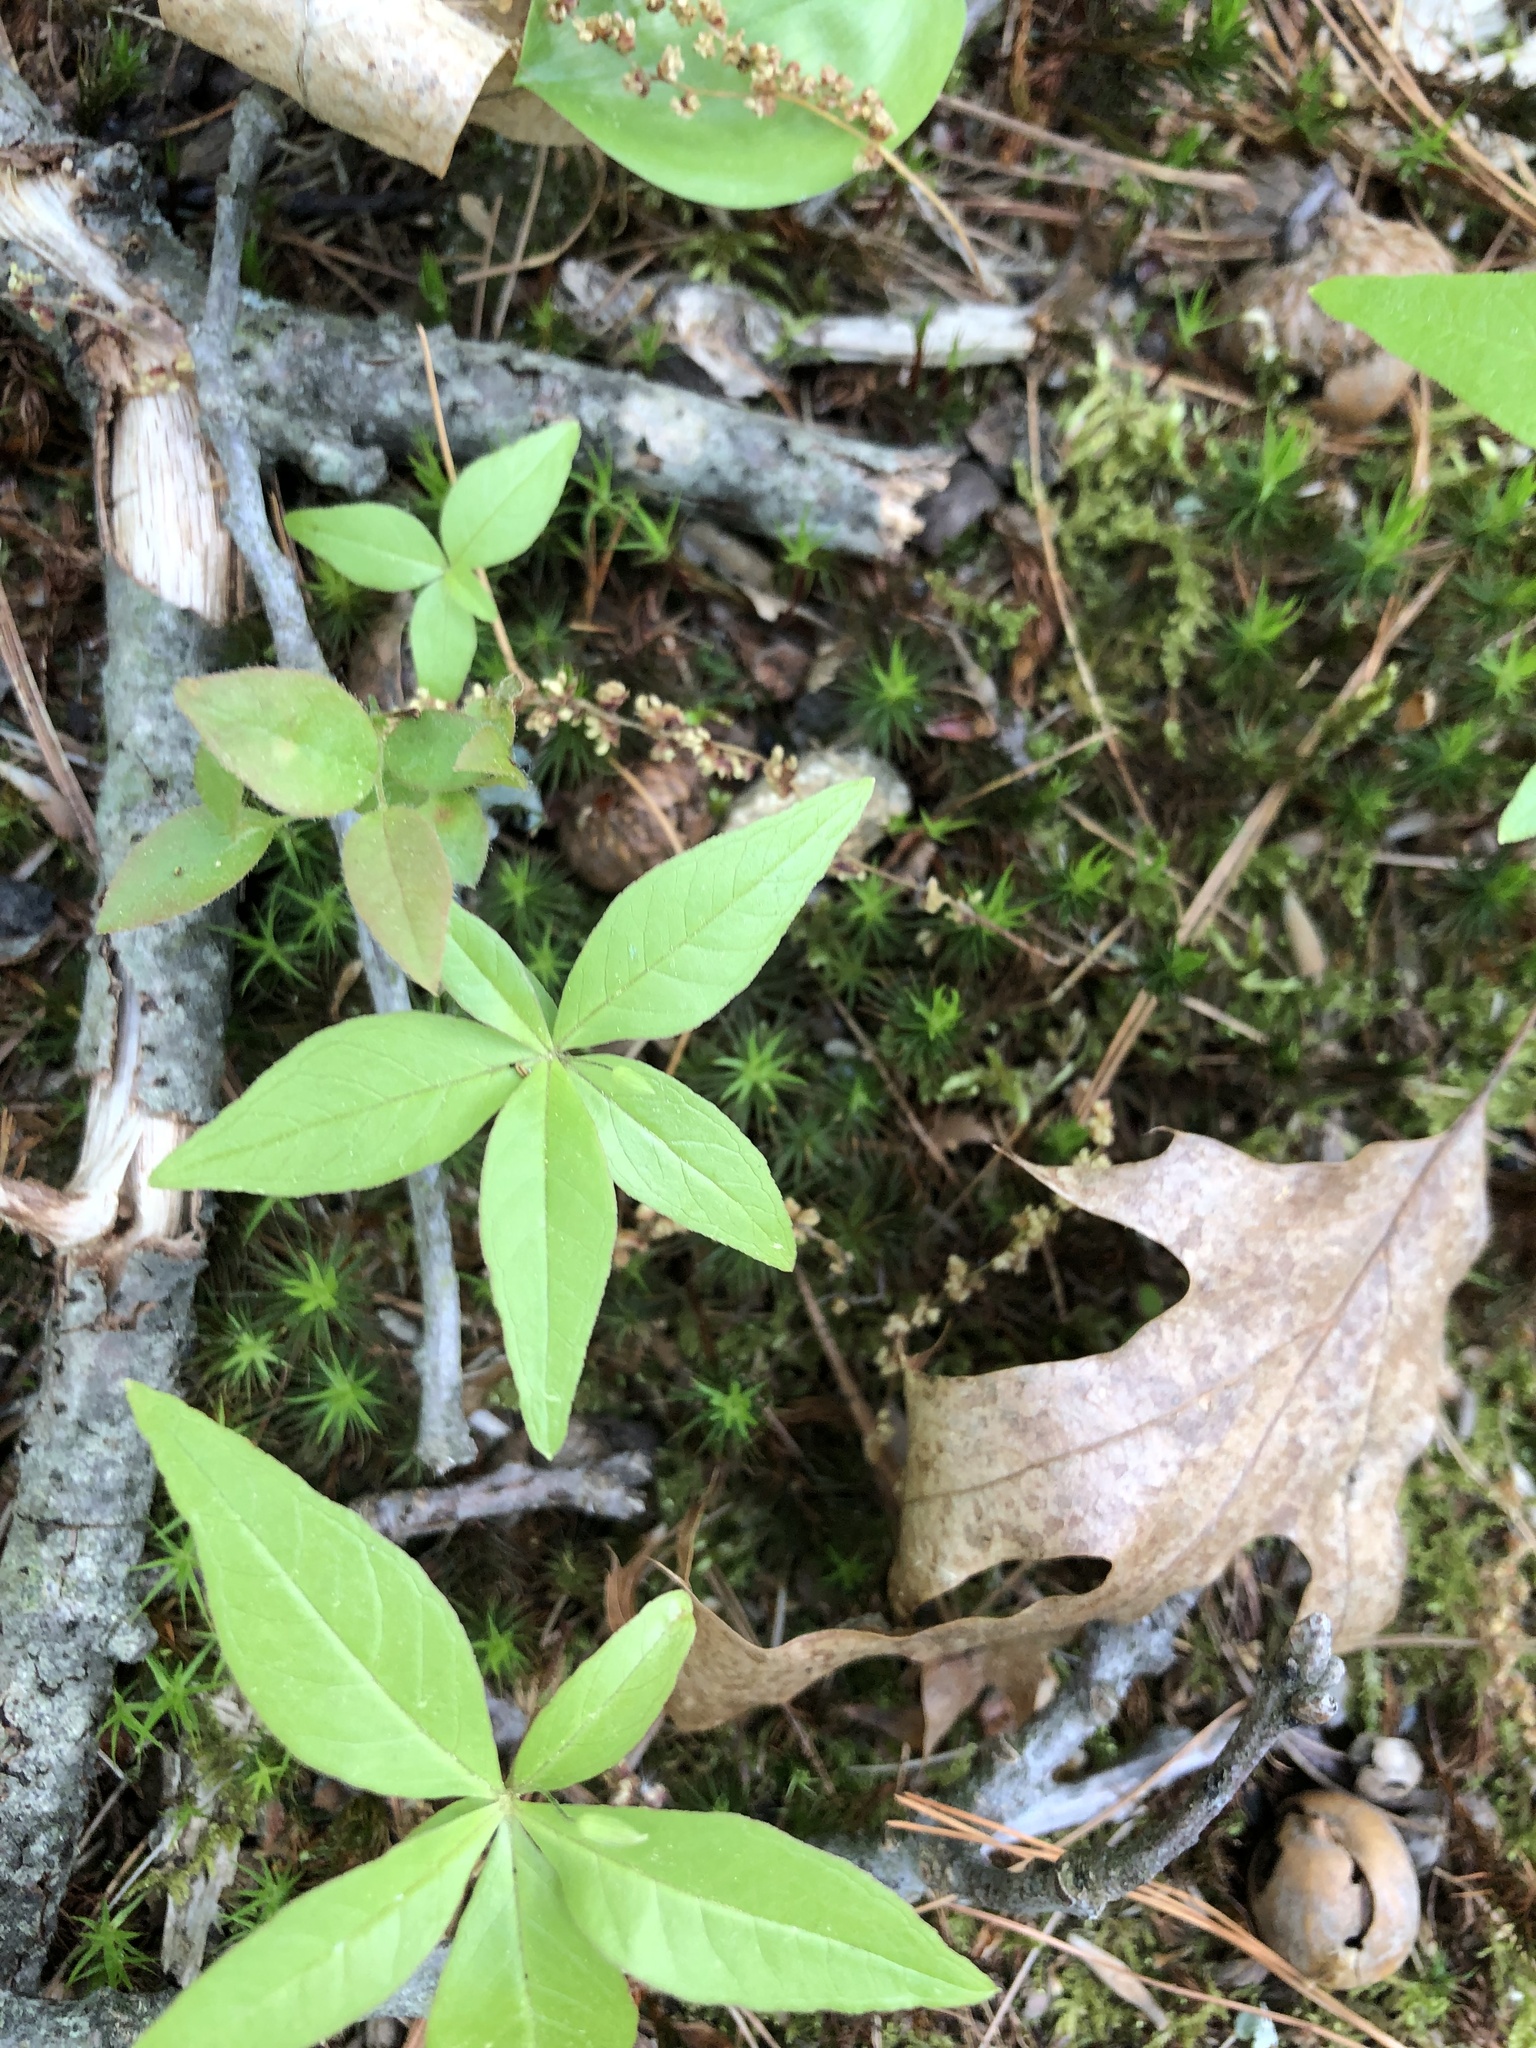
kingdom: Plantae
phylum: Tracheophyta
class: Magnoliopsida
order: Ericales
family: Primulaceae
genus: Lysimachia
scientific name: Lysimachia borealis
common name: American starflower
